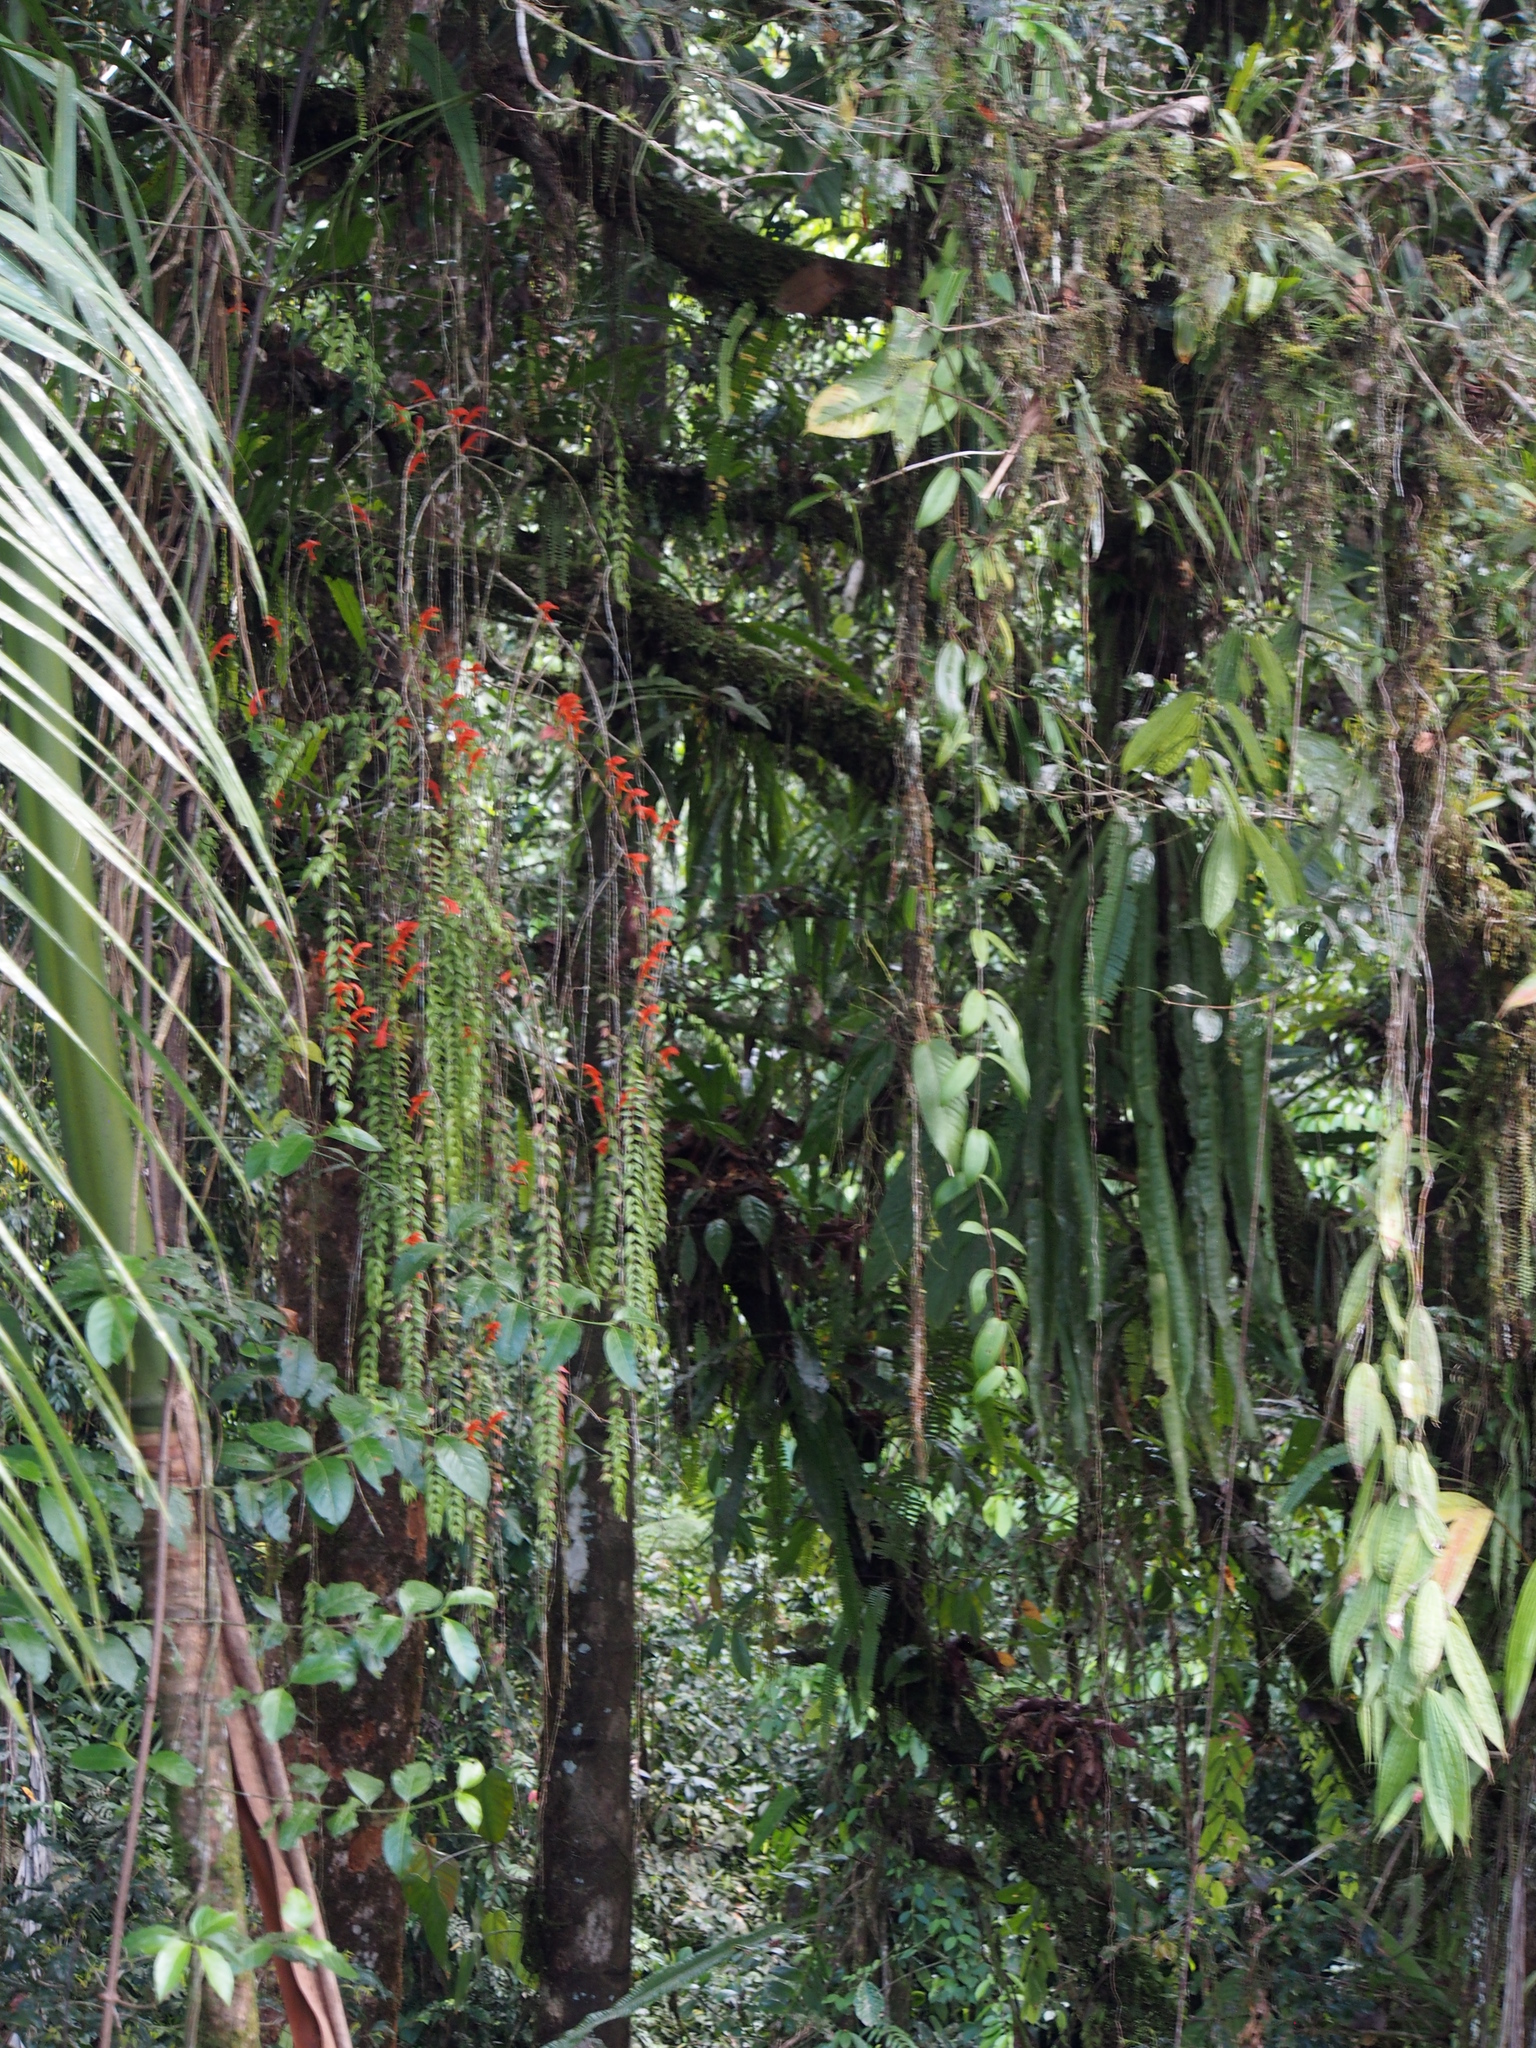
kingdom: Plantae
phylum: Tracheophyta
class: Magnoliopsida
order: Lamiales
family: Gesneriaceae
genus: Columnea
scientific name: Columnea oxyphylla
